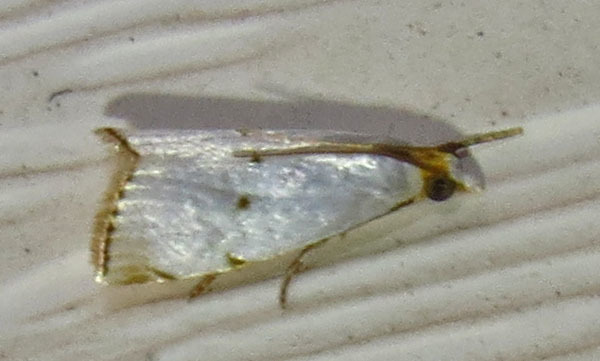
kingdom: Animalia
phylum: Arthropoda
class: Insecta
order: Lepidoptera
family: Crambidae
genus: Argyria
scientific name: Argyria pusillalis
